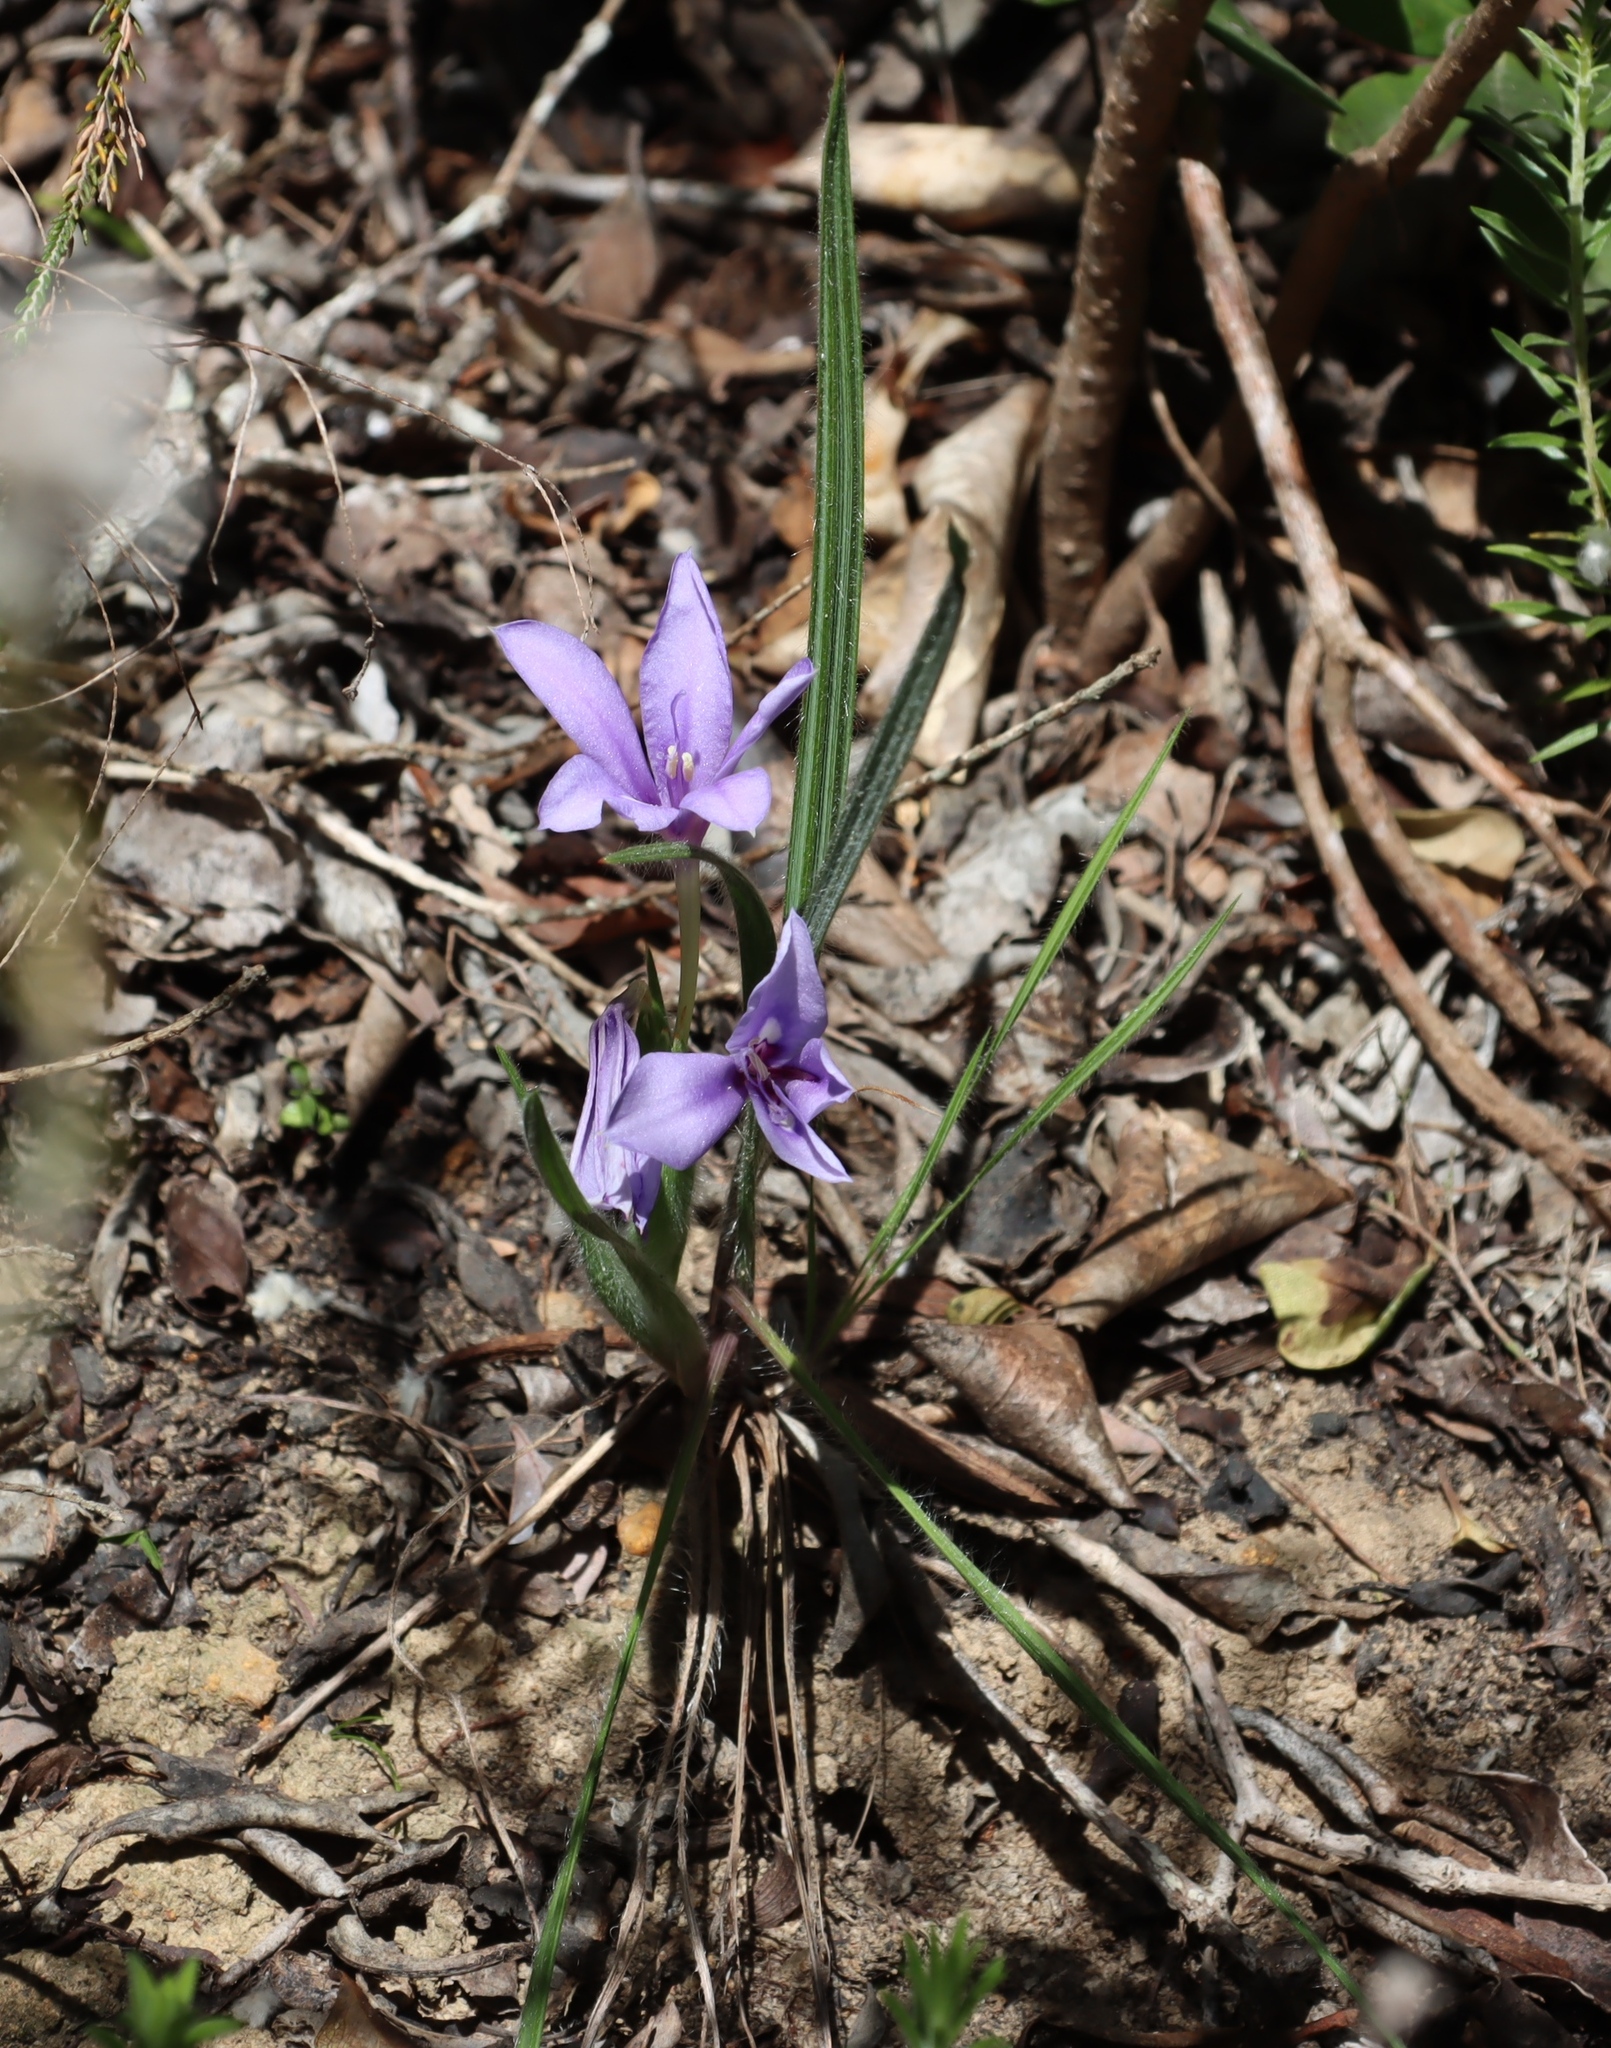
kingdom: Plantae
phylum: Tracheophyta
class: Liliopsida
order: Asparagales
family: Iridaceae
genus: Babiana
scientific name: Babiana sambucina
